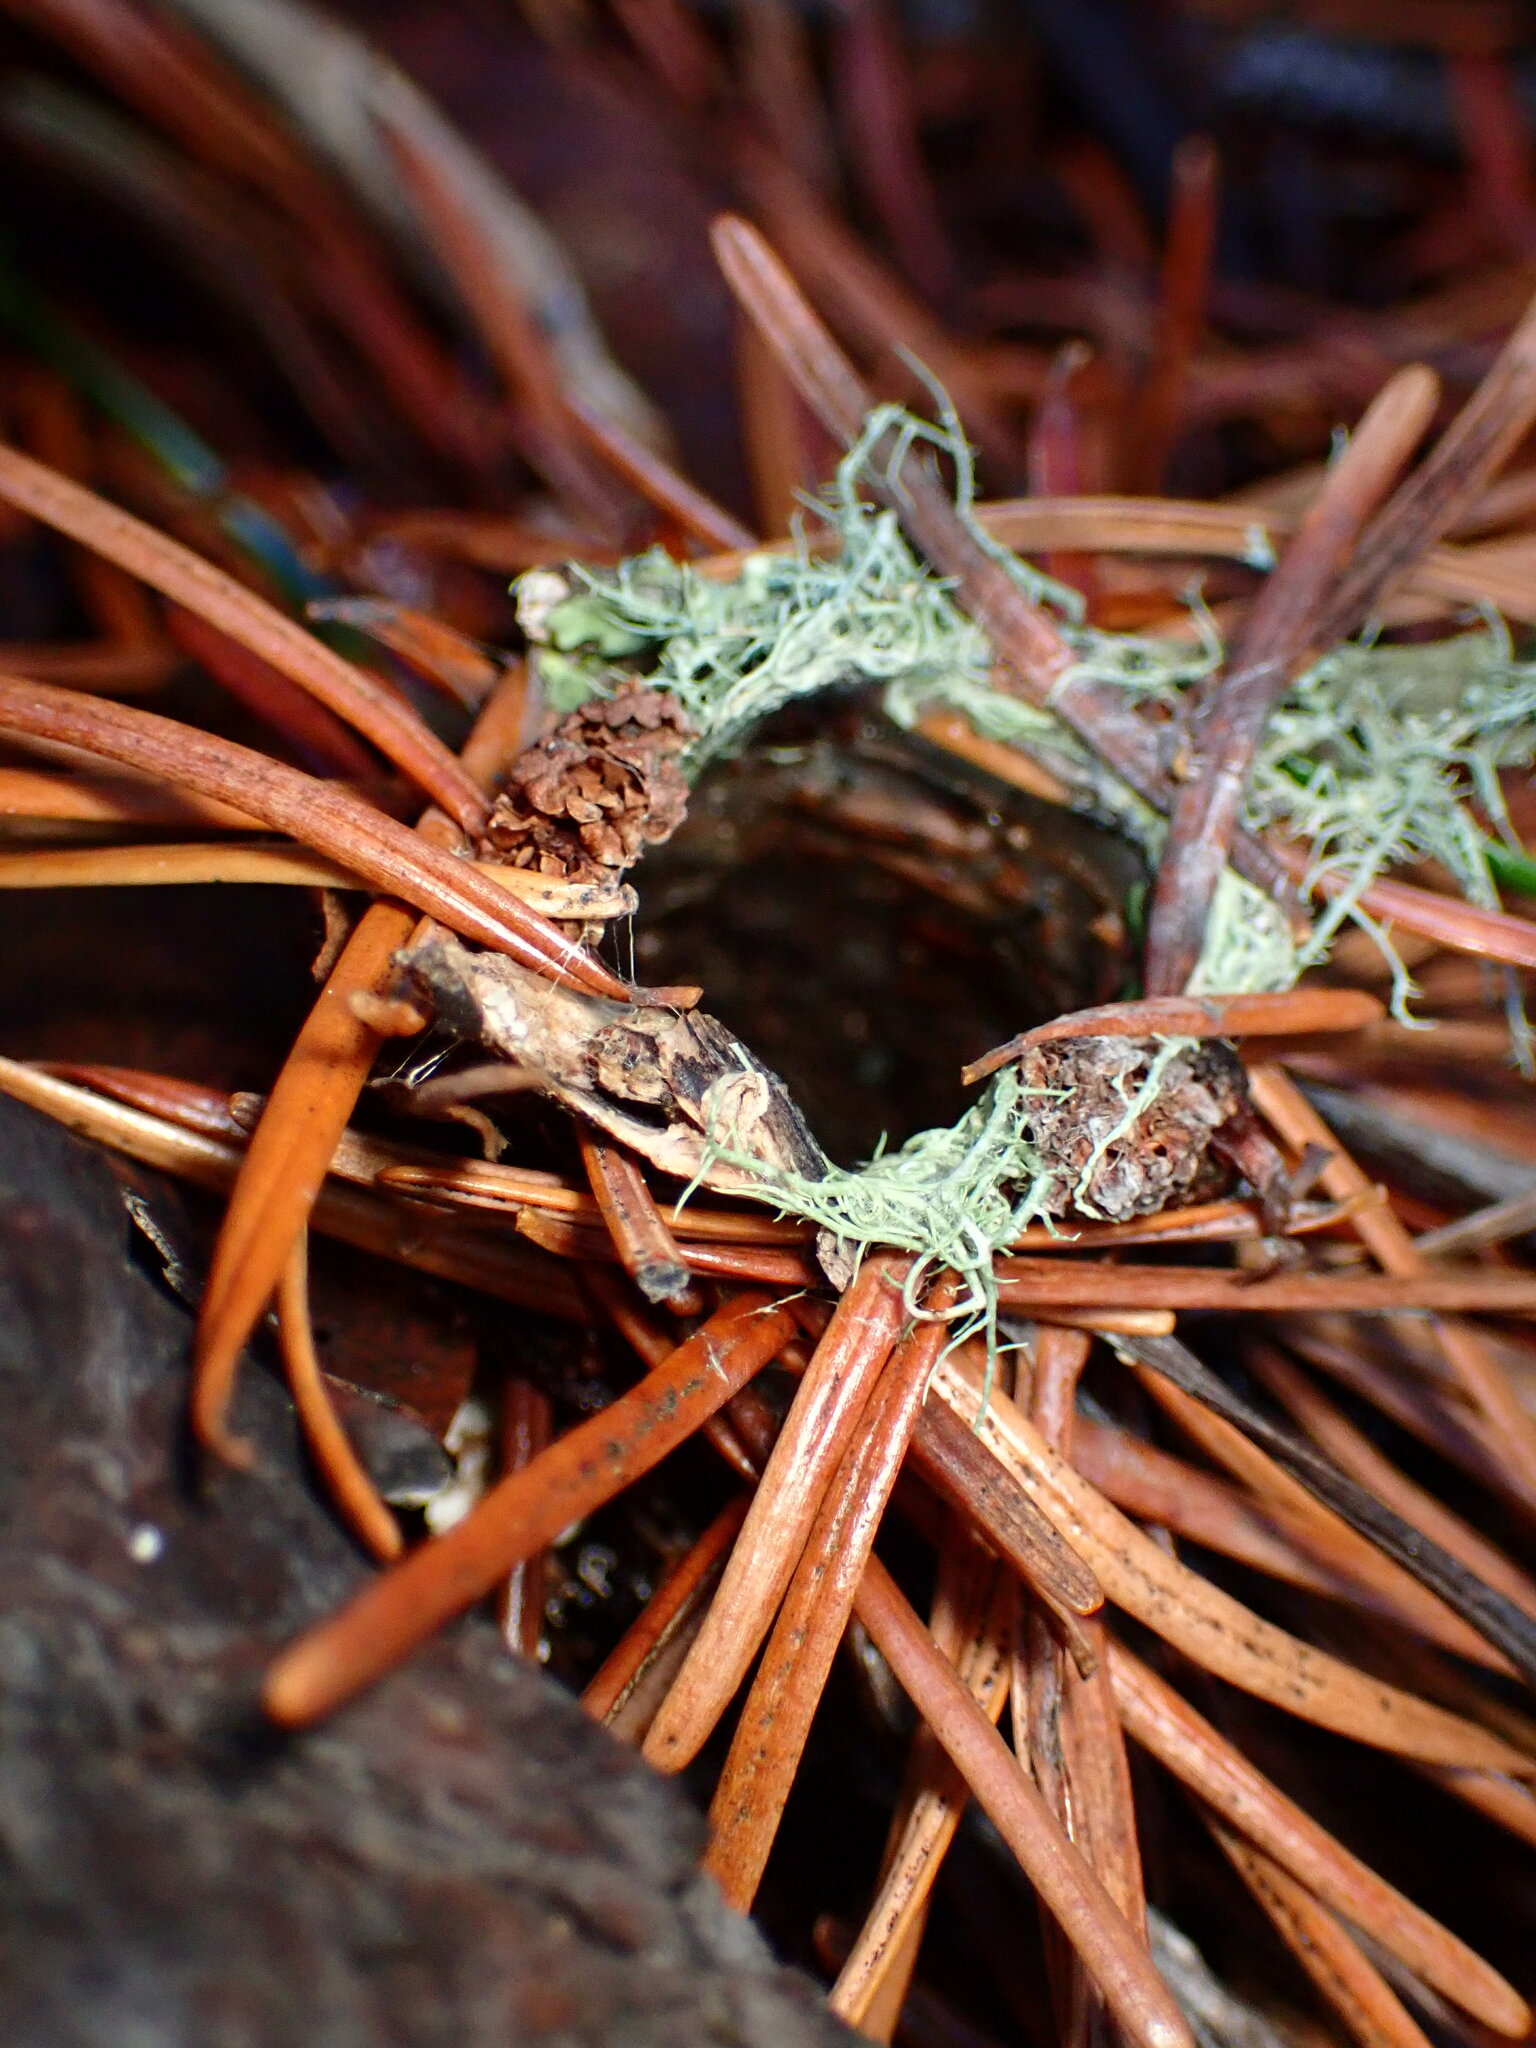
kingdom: Animalia
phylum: Arthropoda
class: Arachnida
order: Araneae
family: Antrodiaetidae
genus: Atypoides
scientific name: Atypoides riversi
